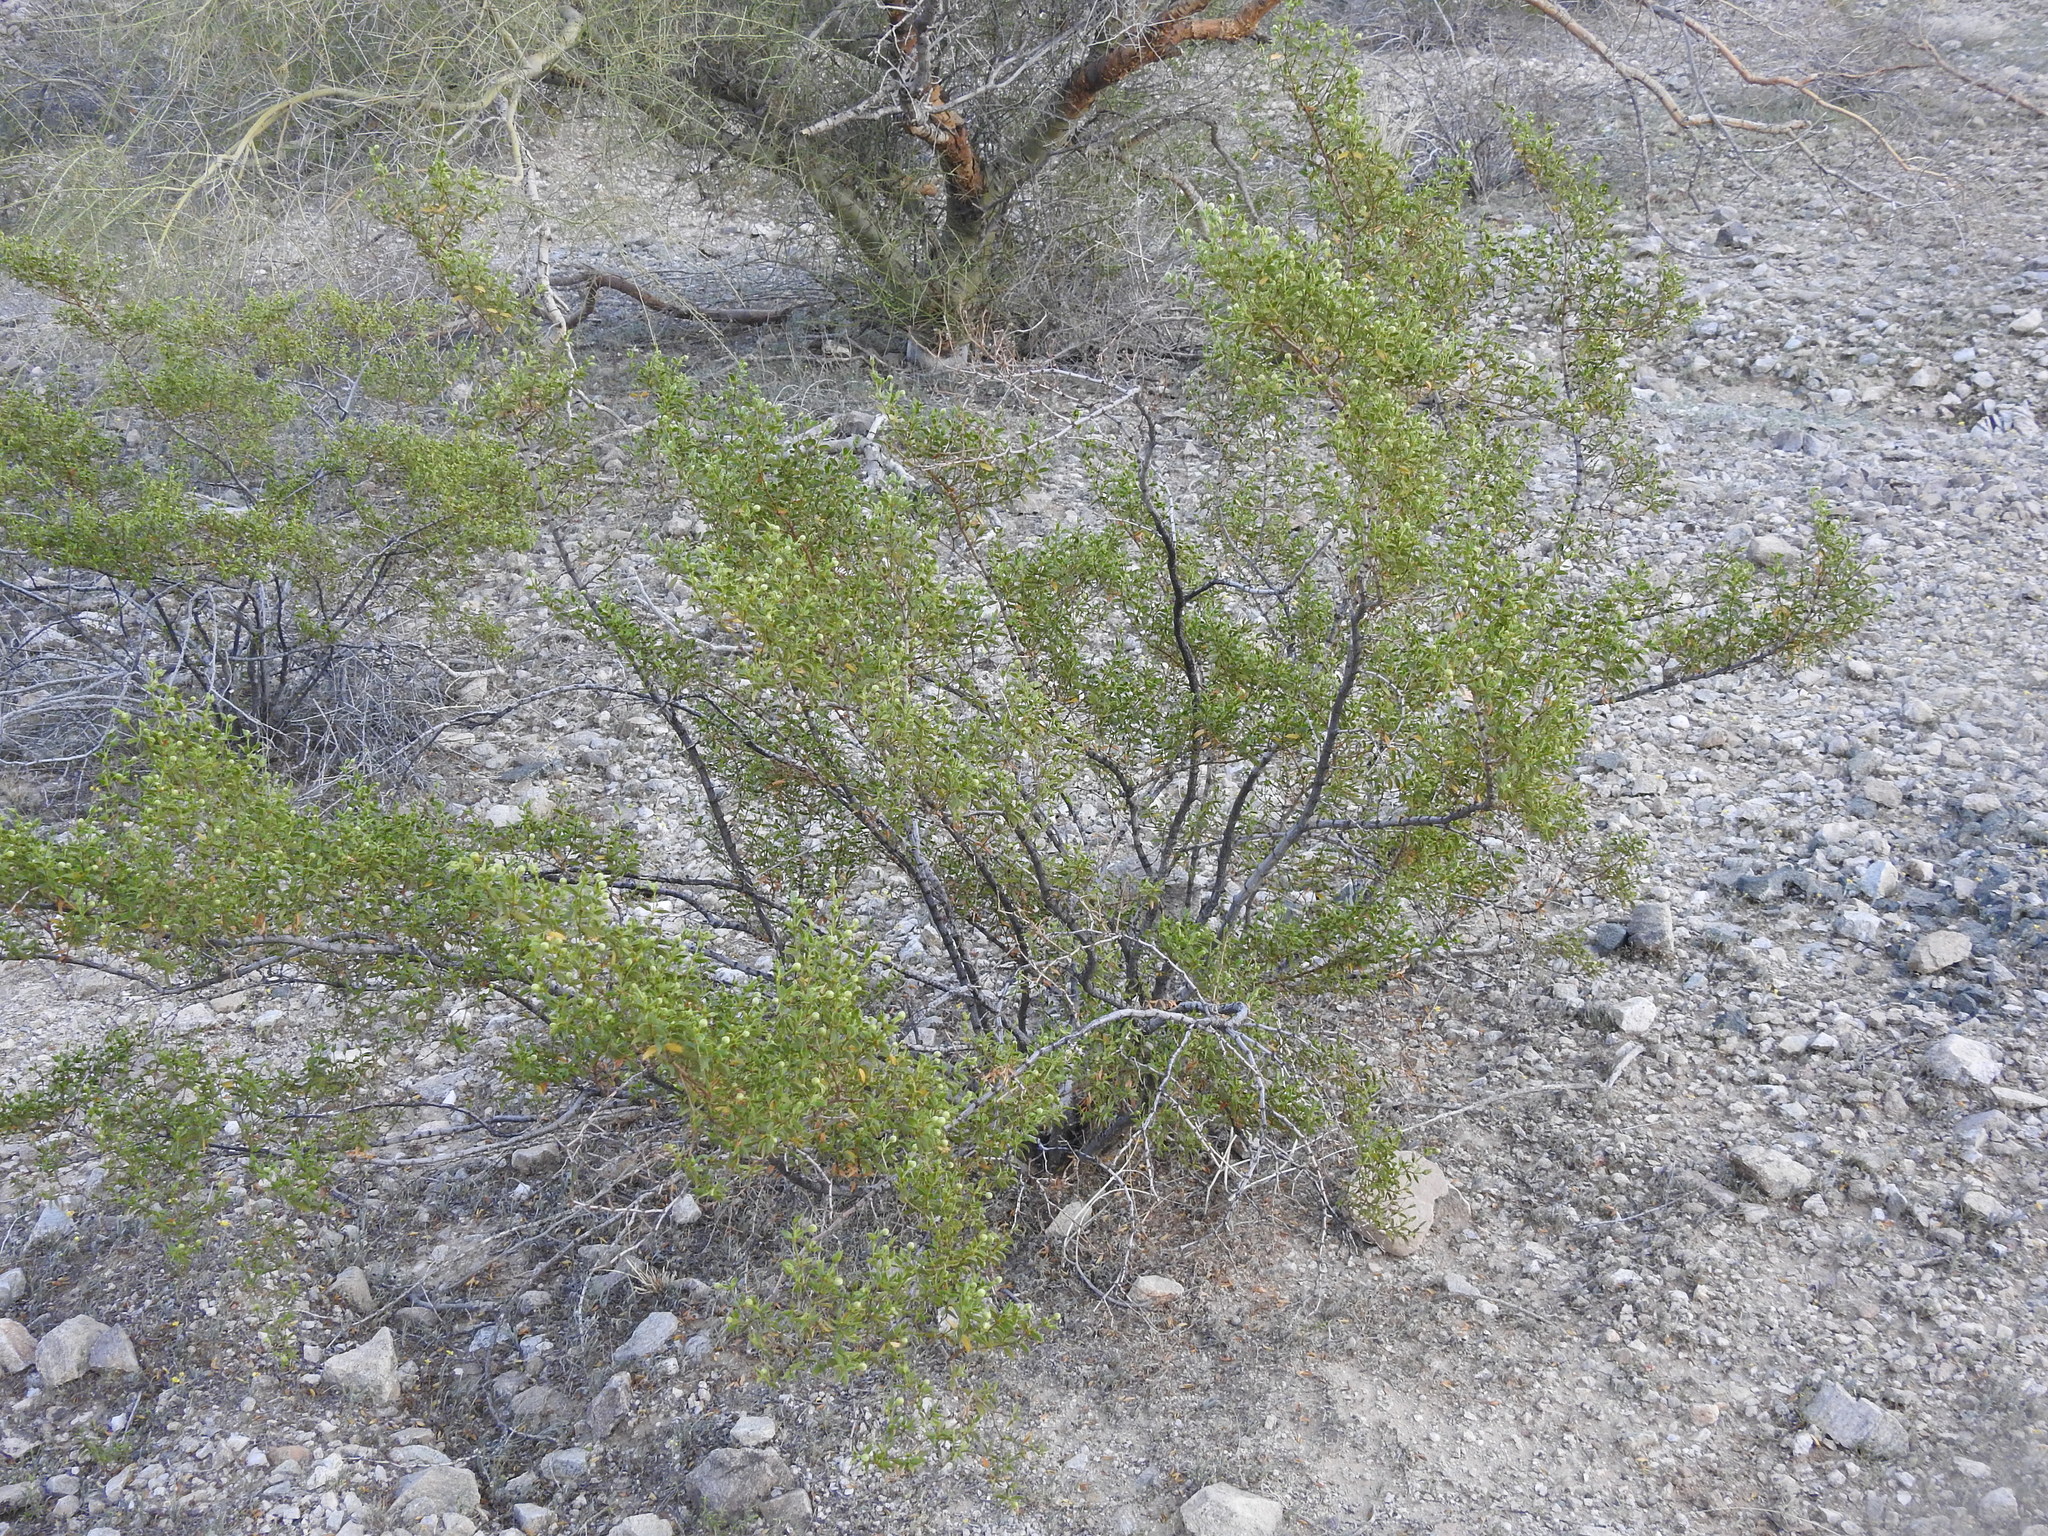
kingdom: Plantae
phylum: Tracheophyta
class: Magnoliopsida
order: Zygophyllales
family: Zygophyllaceae
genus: Larrea
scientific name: Larrea tridentata
